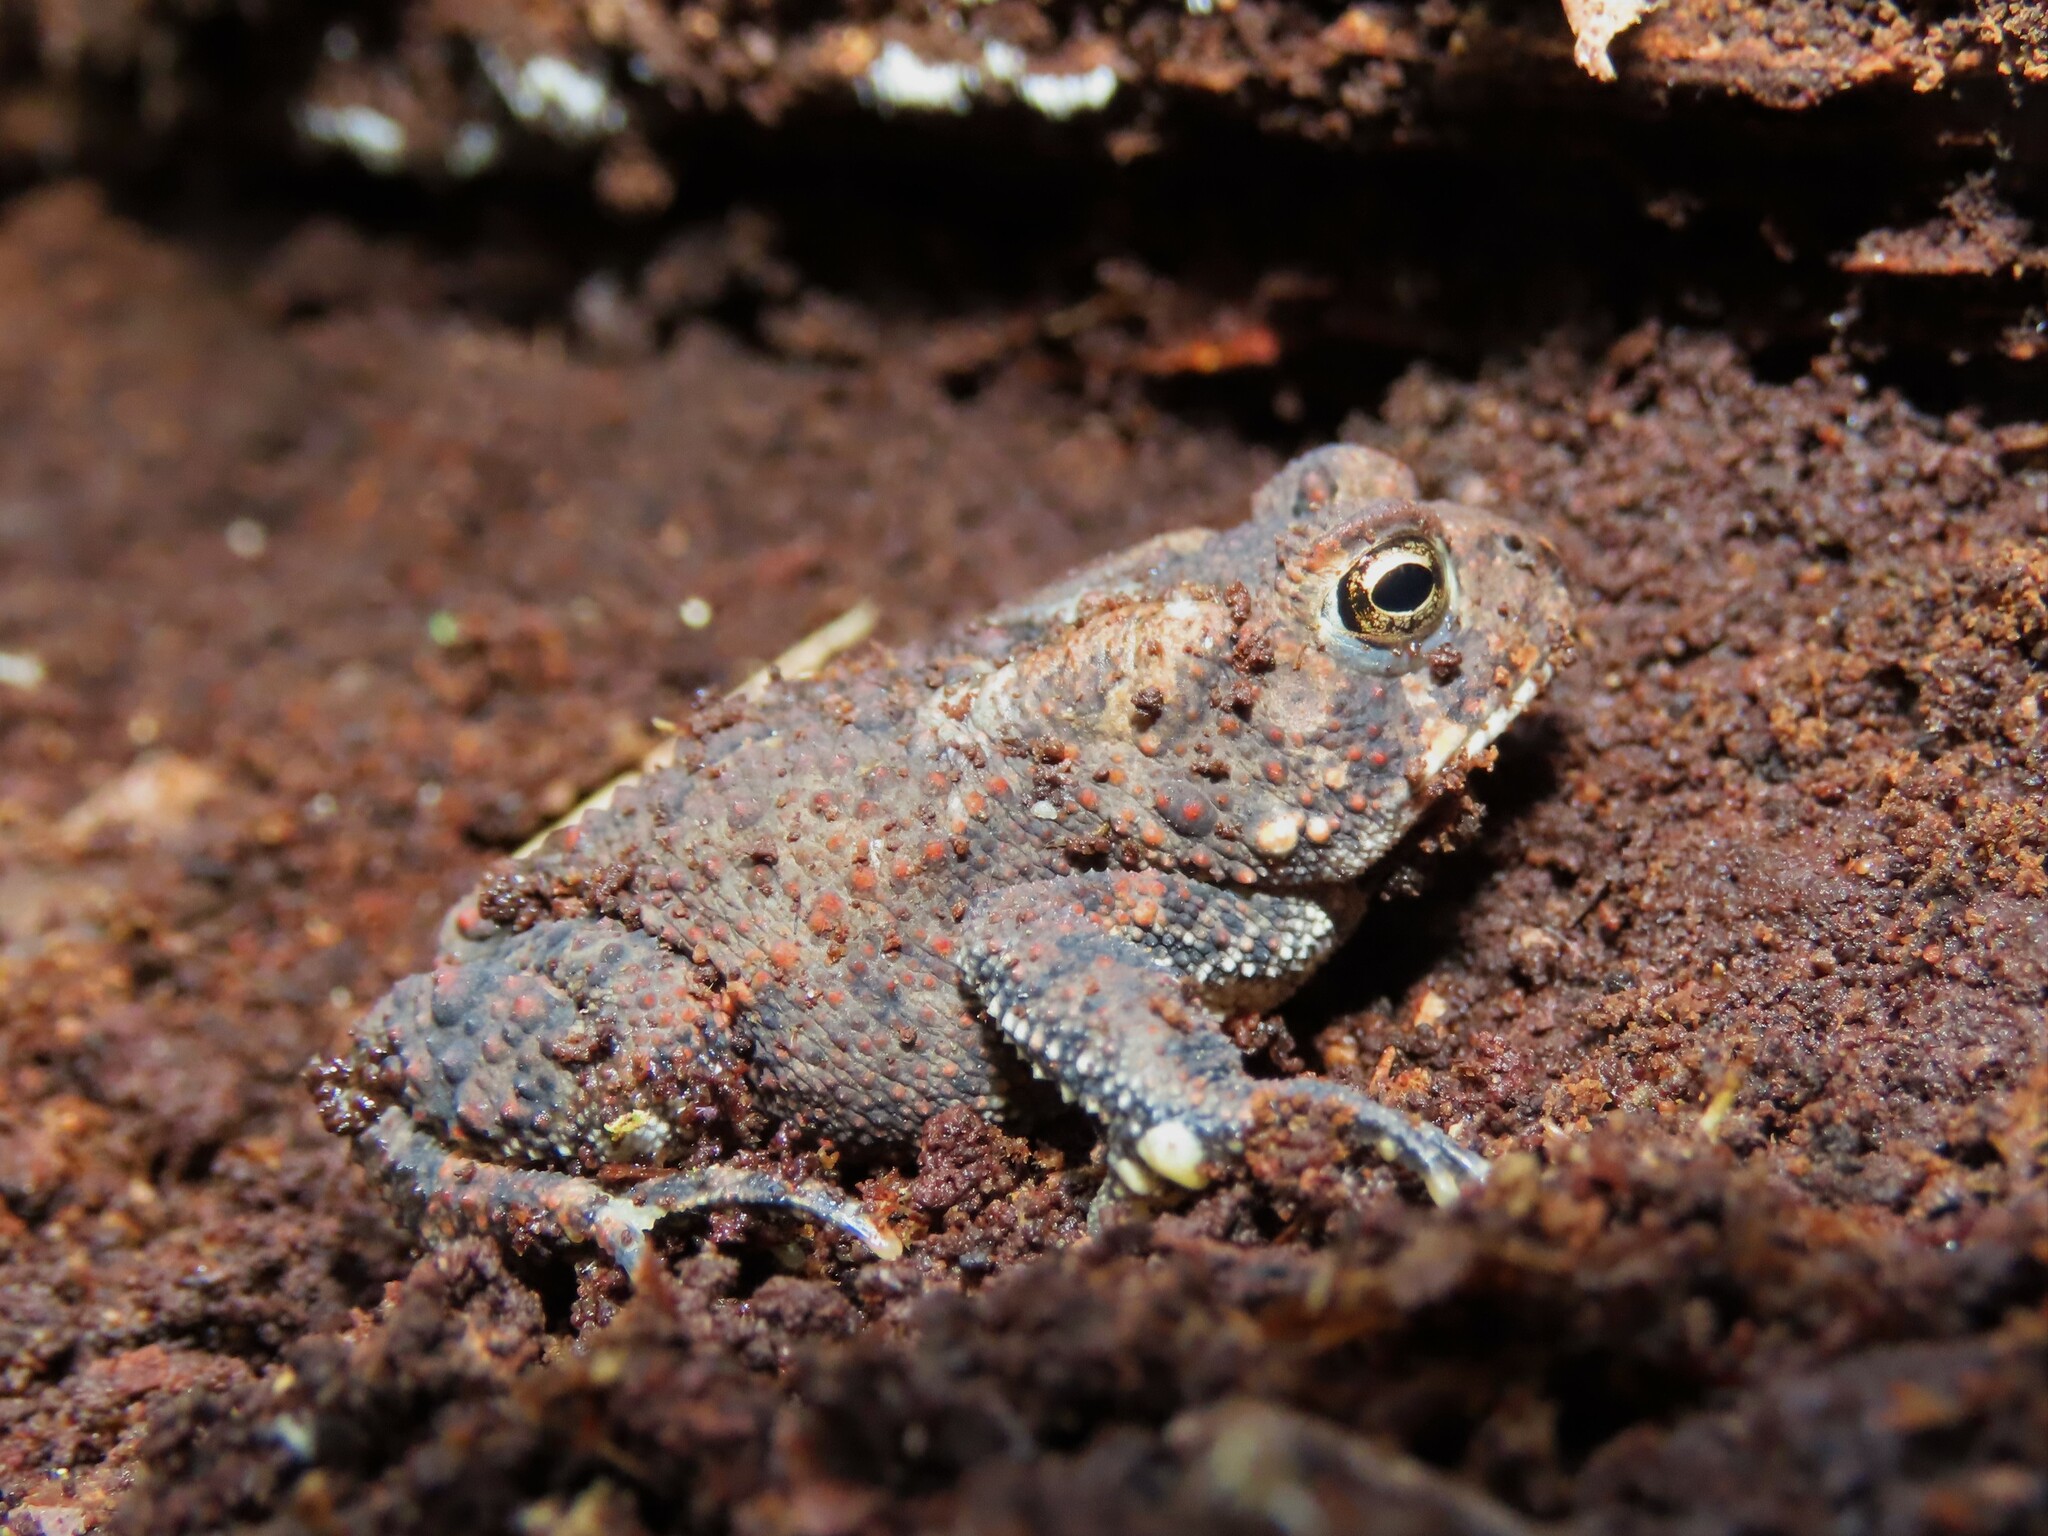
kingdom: Animalia
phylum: Chordata
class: Amphibia
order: Anura
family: Bufonidae
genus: Anaxyrus
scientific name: Anaxyrus americanus
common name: American toad
